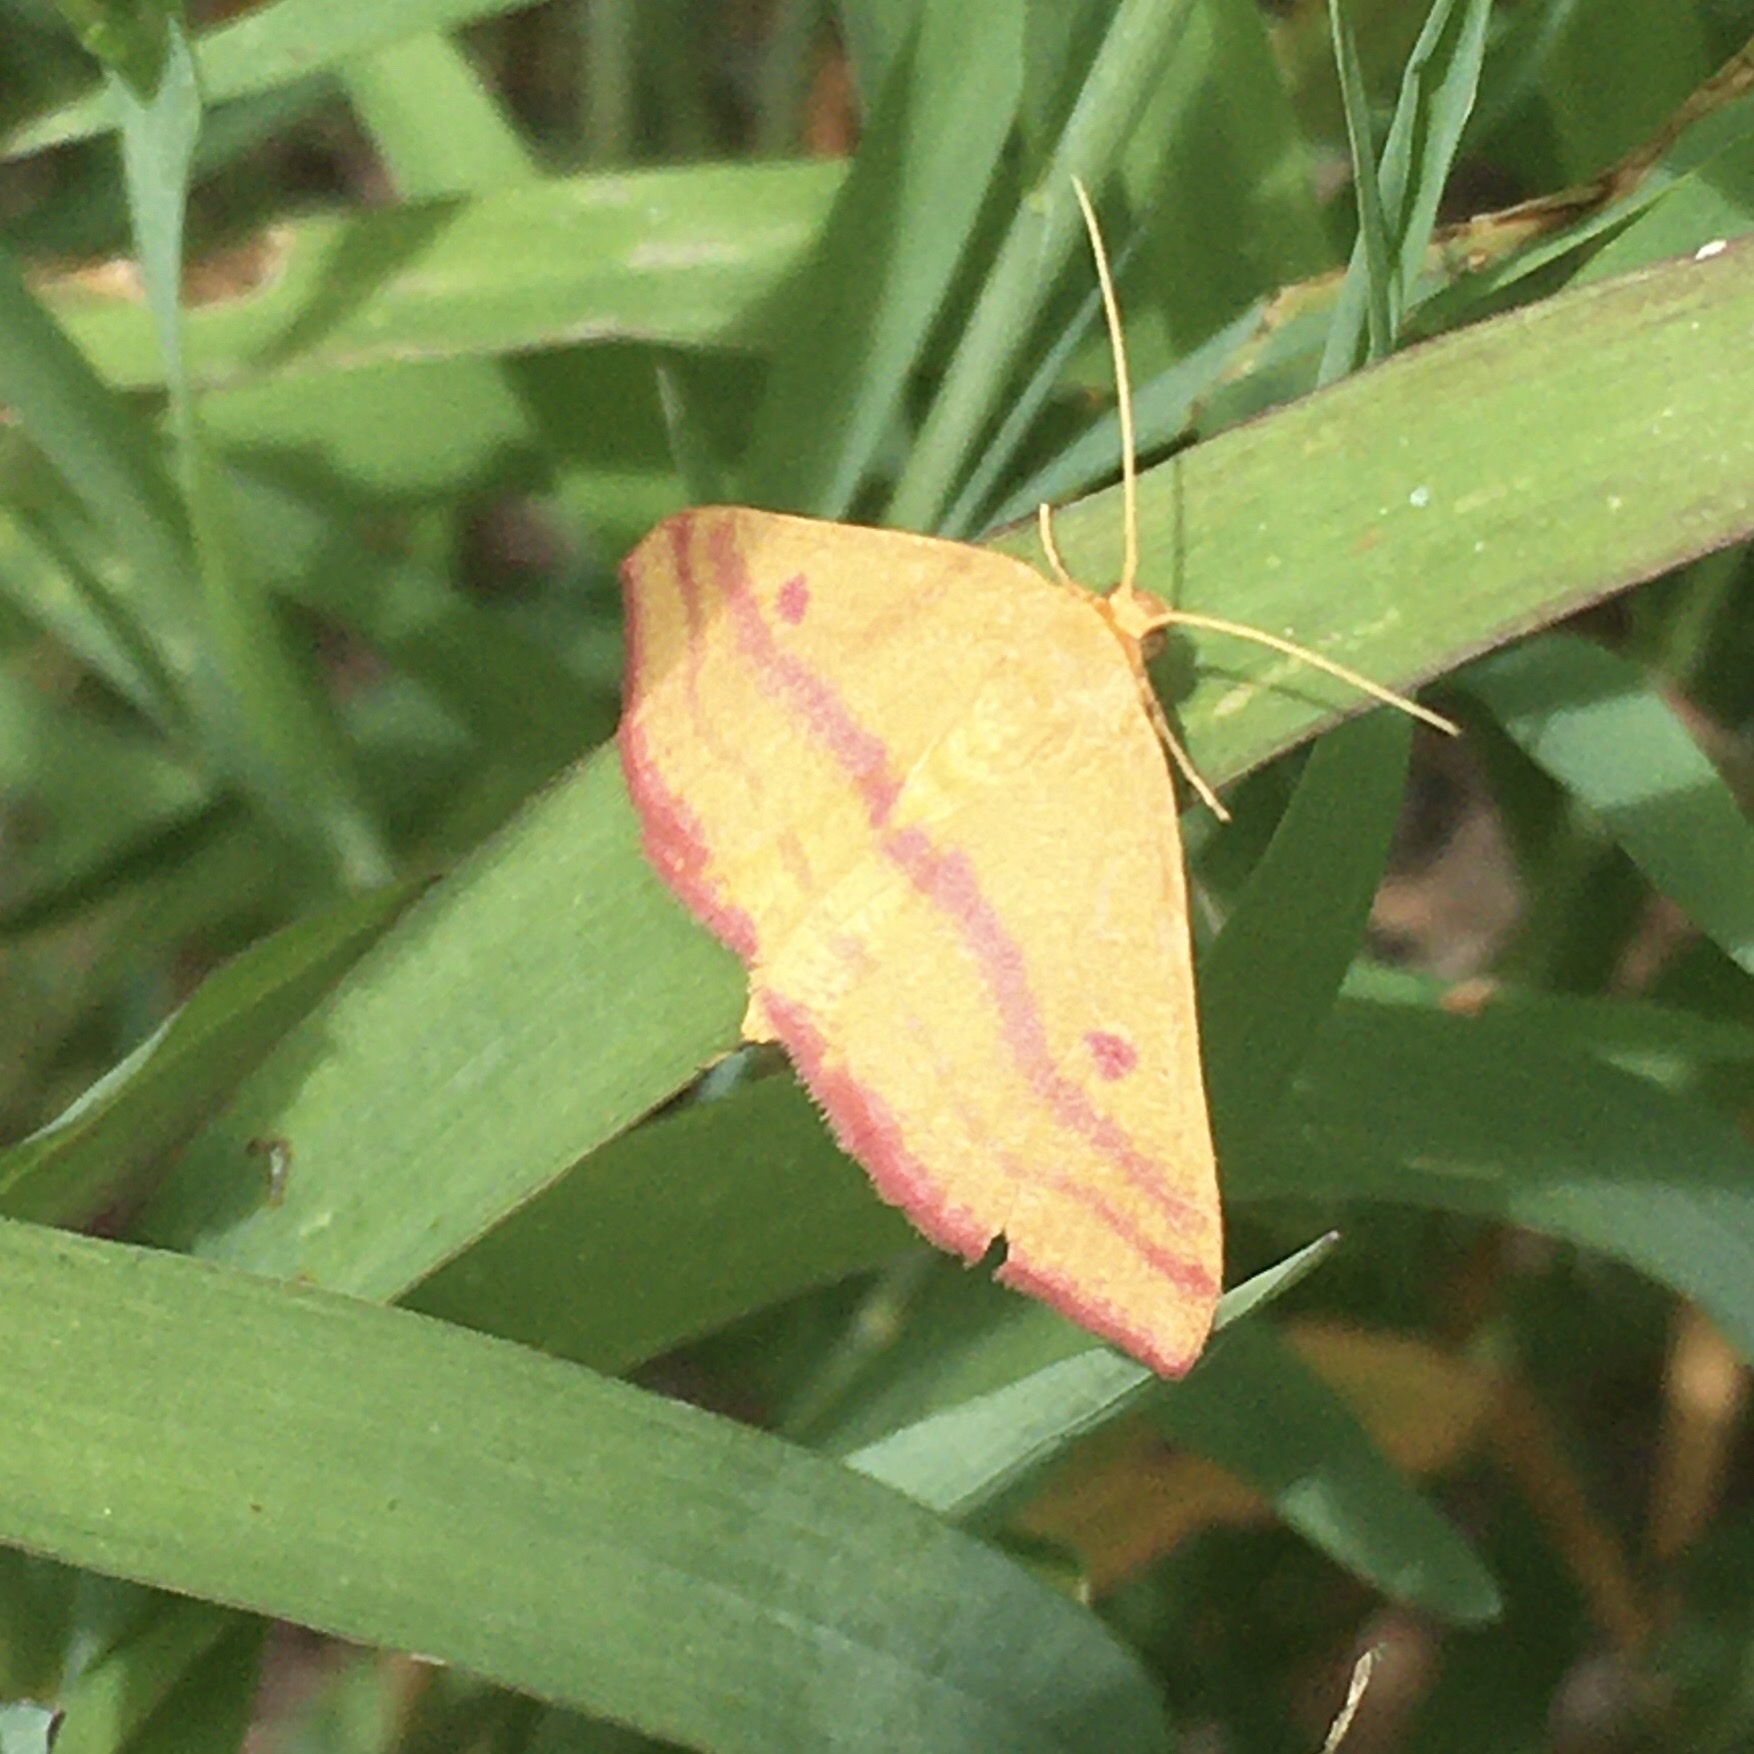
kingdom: Animalia
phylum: Arthropoda
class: Insecta
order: Lepidoptera
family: Geometridae
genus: Haematopis
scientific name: Haematopis grataria
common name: Chickweed geometer
